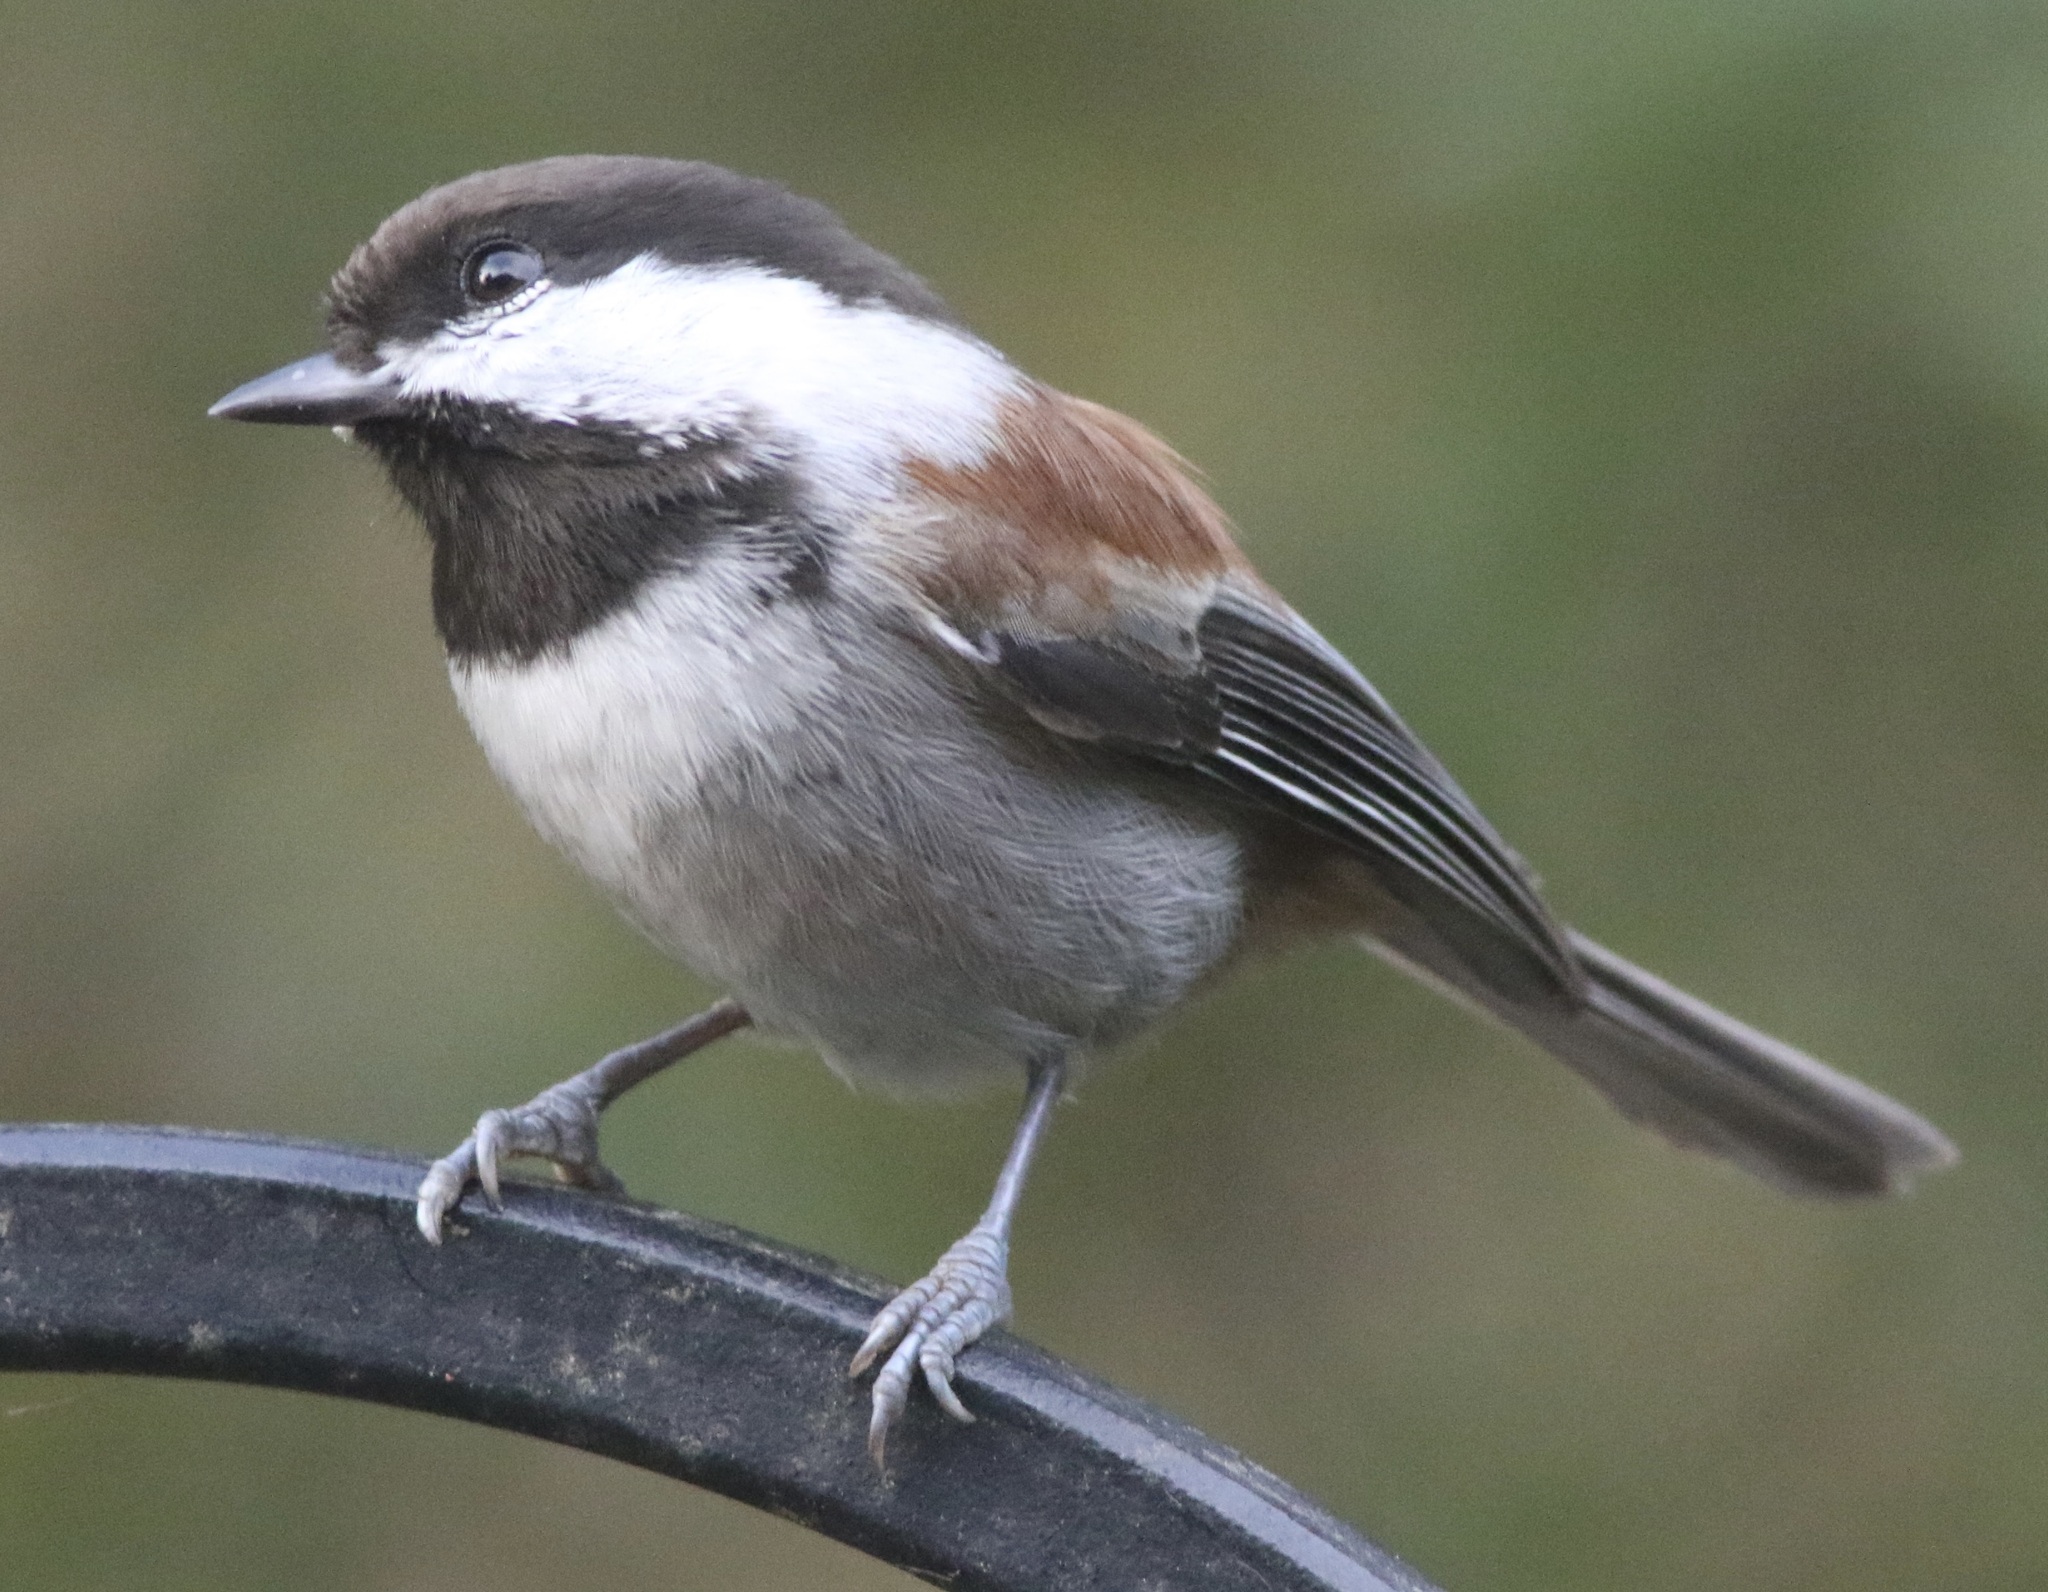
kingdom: Animalia
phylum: Chordata
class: Aves
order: Passeriformes
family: Paridae
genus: Poecile
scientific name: Poecile rufescens
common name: Chestnut-backed chickadee
